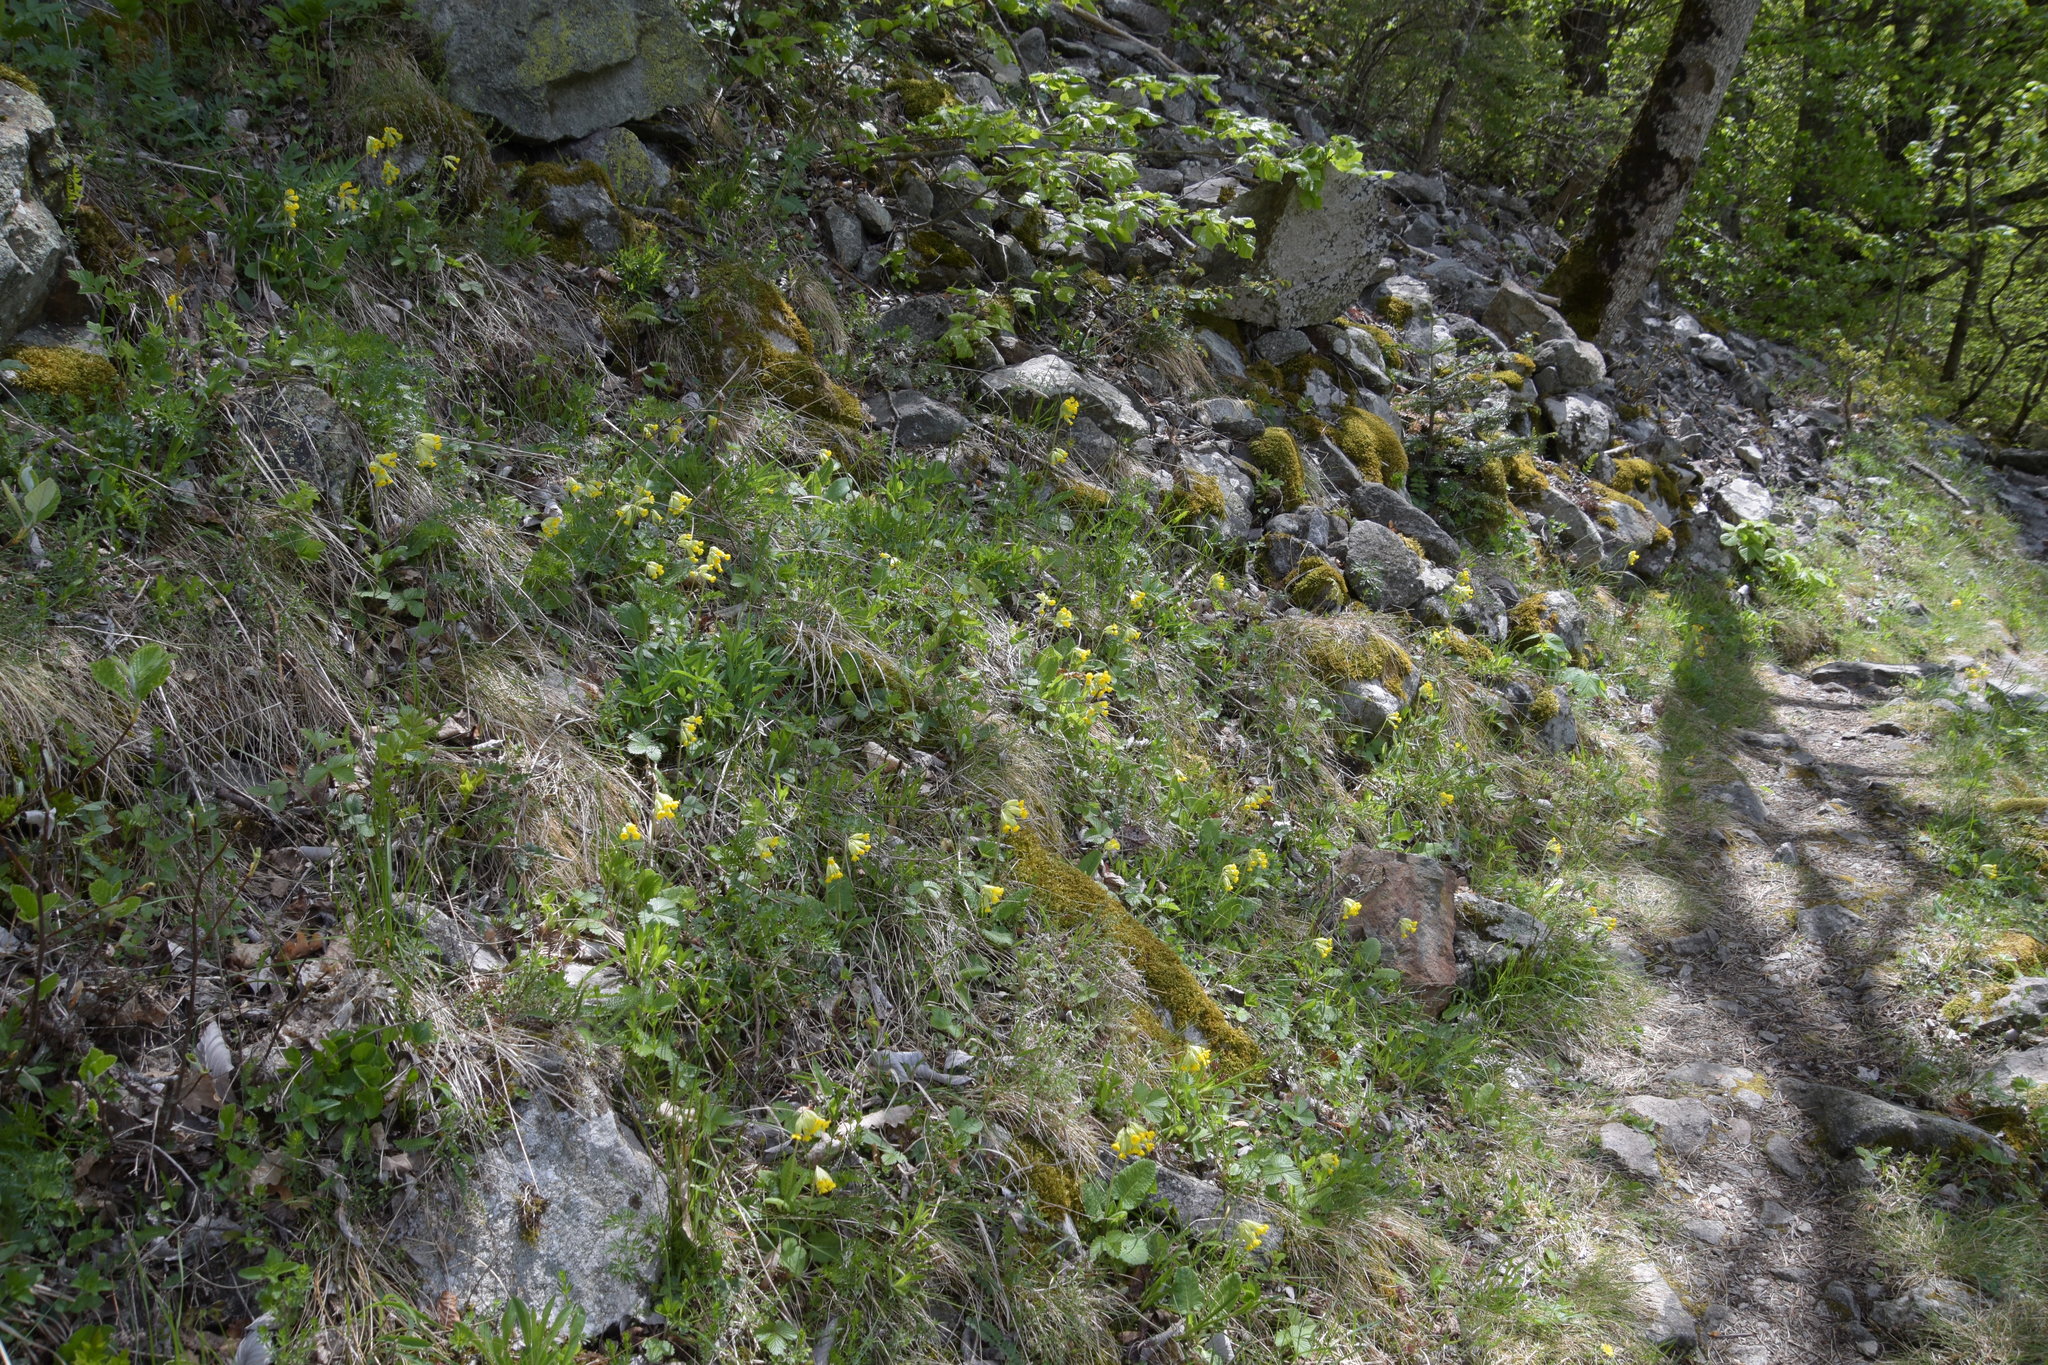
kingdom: Plantae
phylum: Tracheophyta
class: Magnoliopsida
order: Ericales
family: Primulaceae
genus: Primula
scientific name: Primula veris
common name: Cowslip
